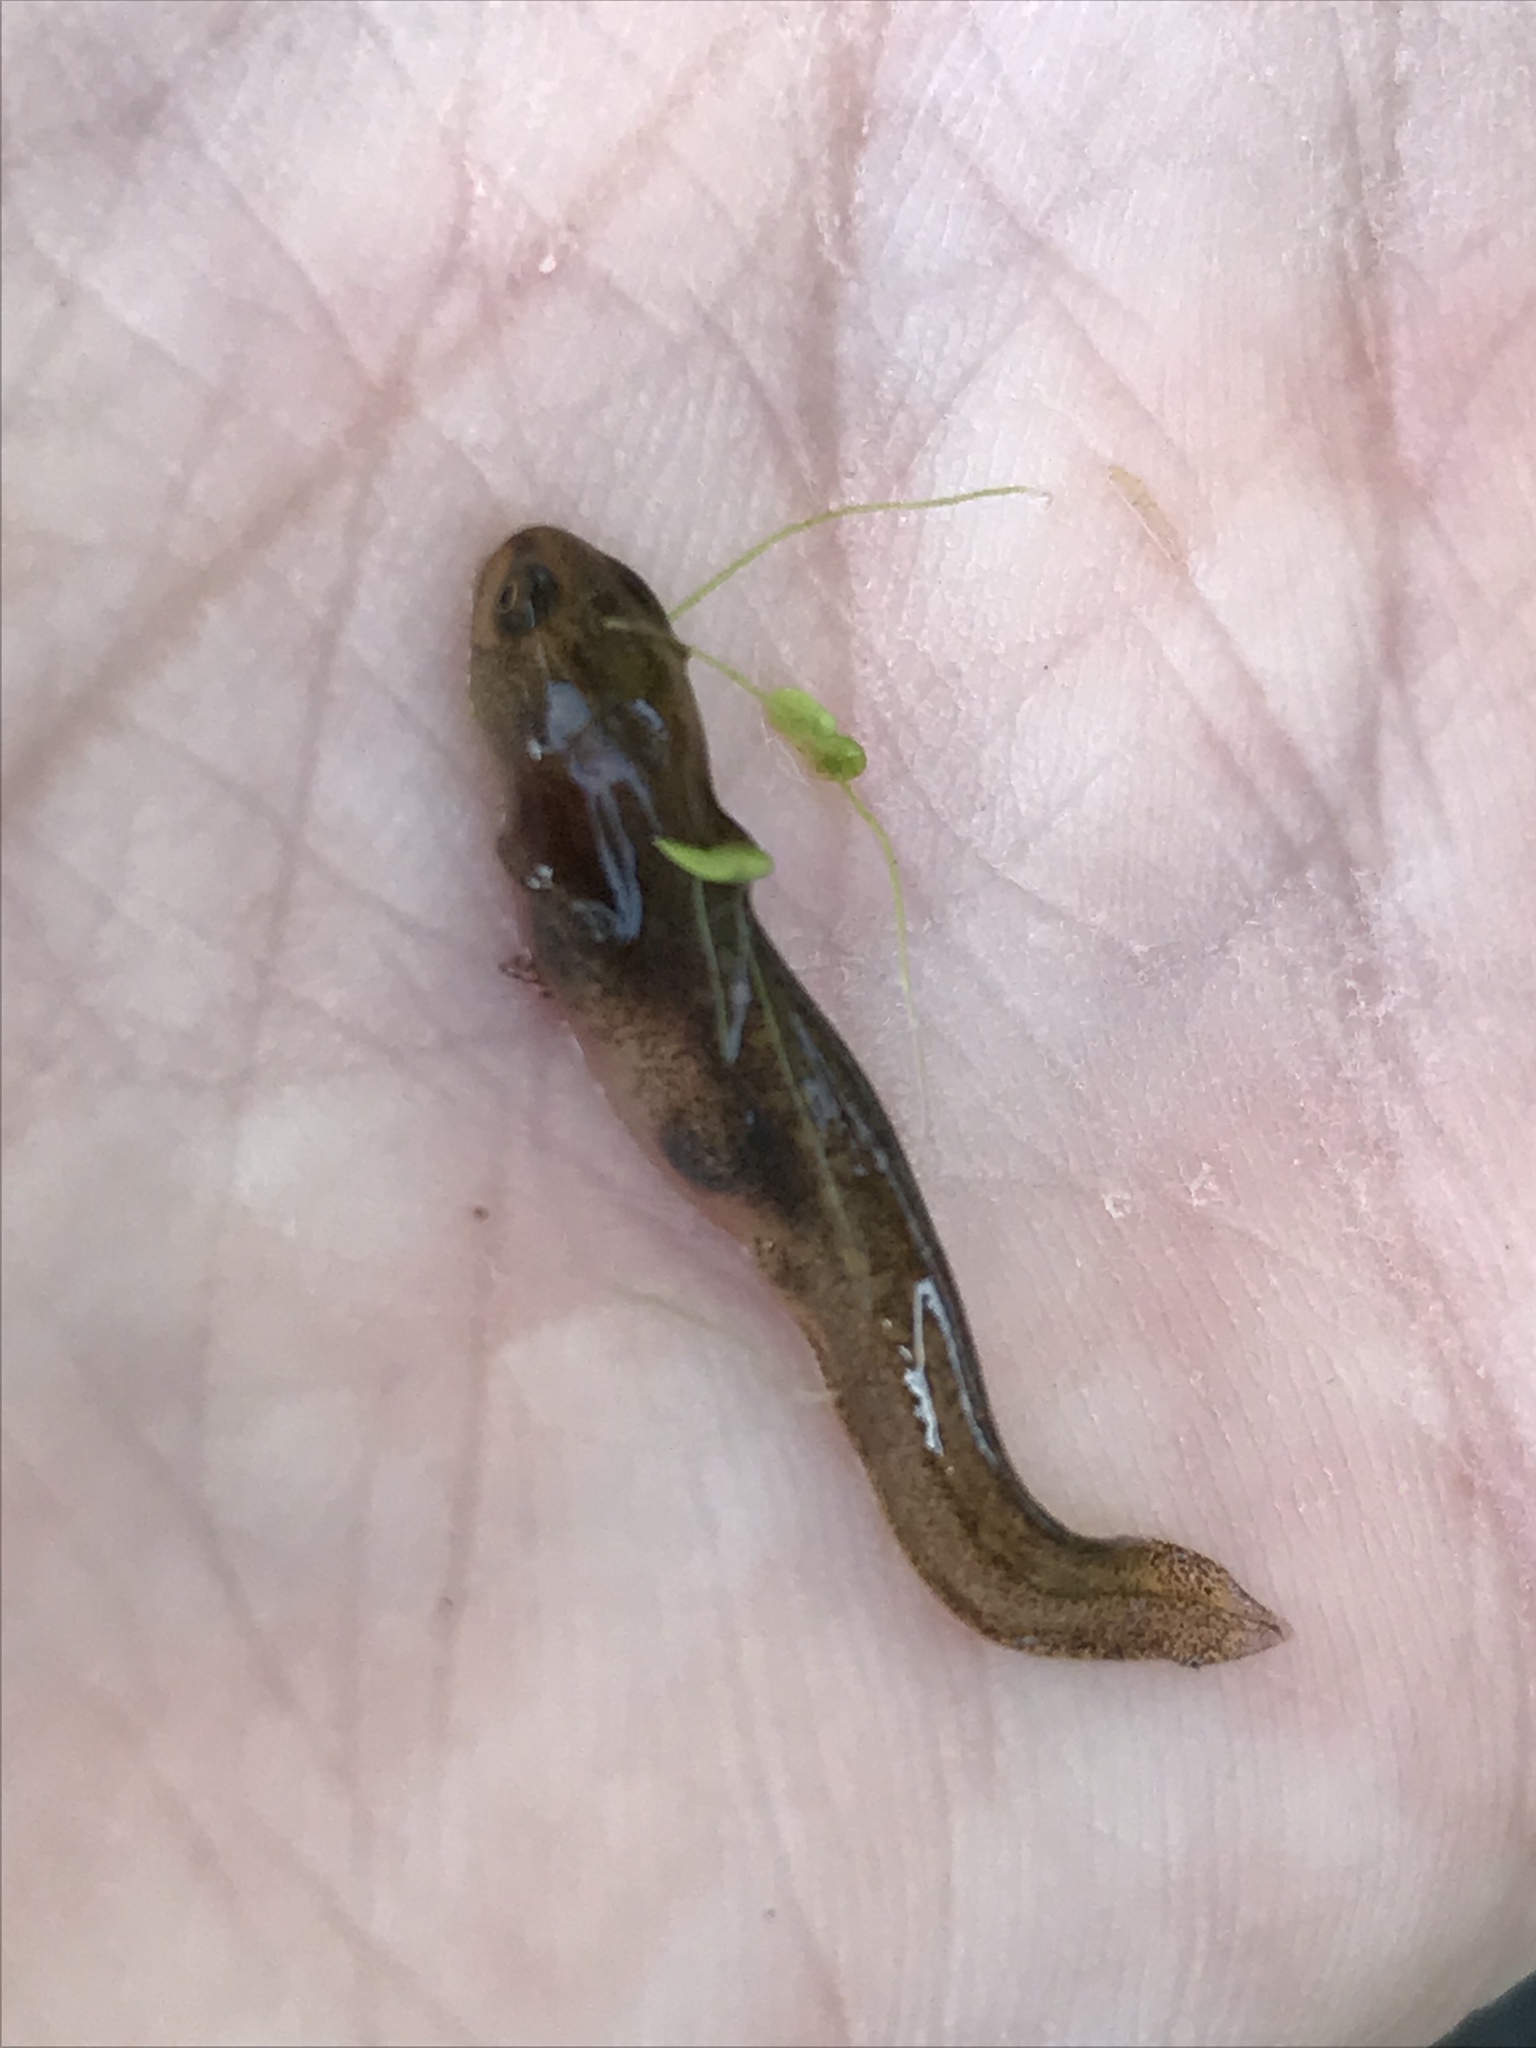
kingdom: Animalia
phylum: Chordata
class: Amphibia
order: Caudata
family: Salamandridae
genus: Lissotriton
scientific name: Lissotriton vulgaris
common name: Smooth newt
